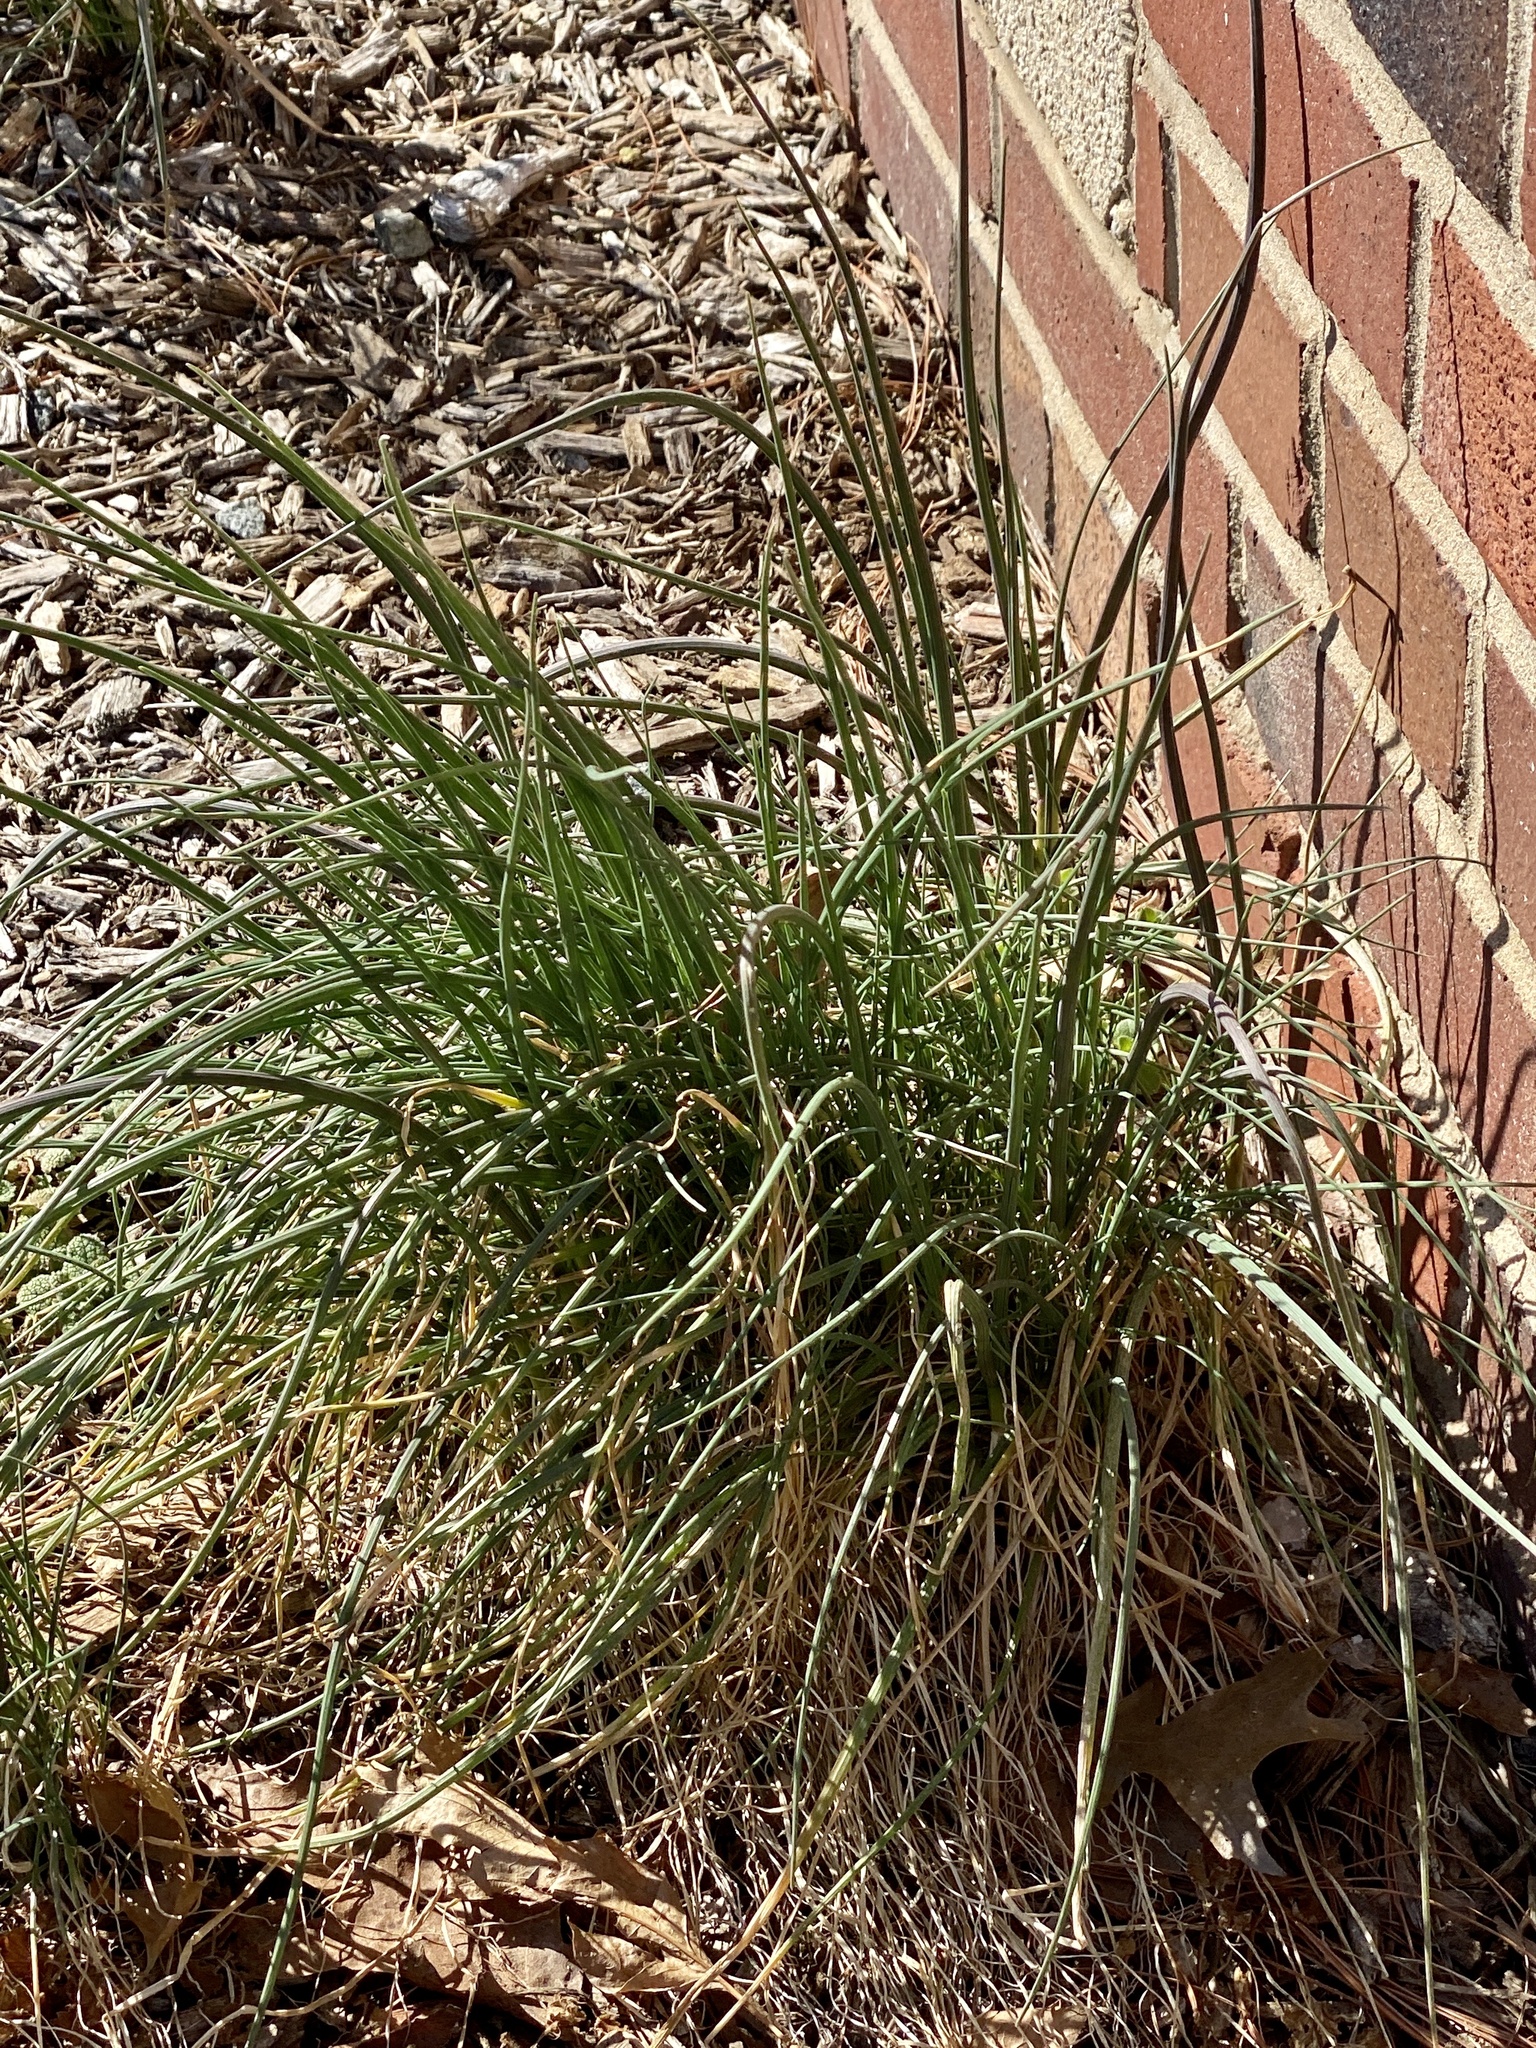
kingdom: Plantae
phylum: Tracheophyta
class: Liliopsida
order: Asparagales
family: Amaryllidaceae
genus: Allium
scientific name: Allium vineale
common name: Crow garlic
